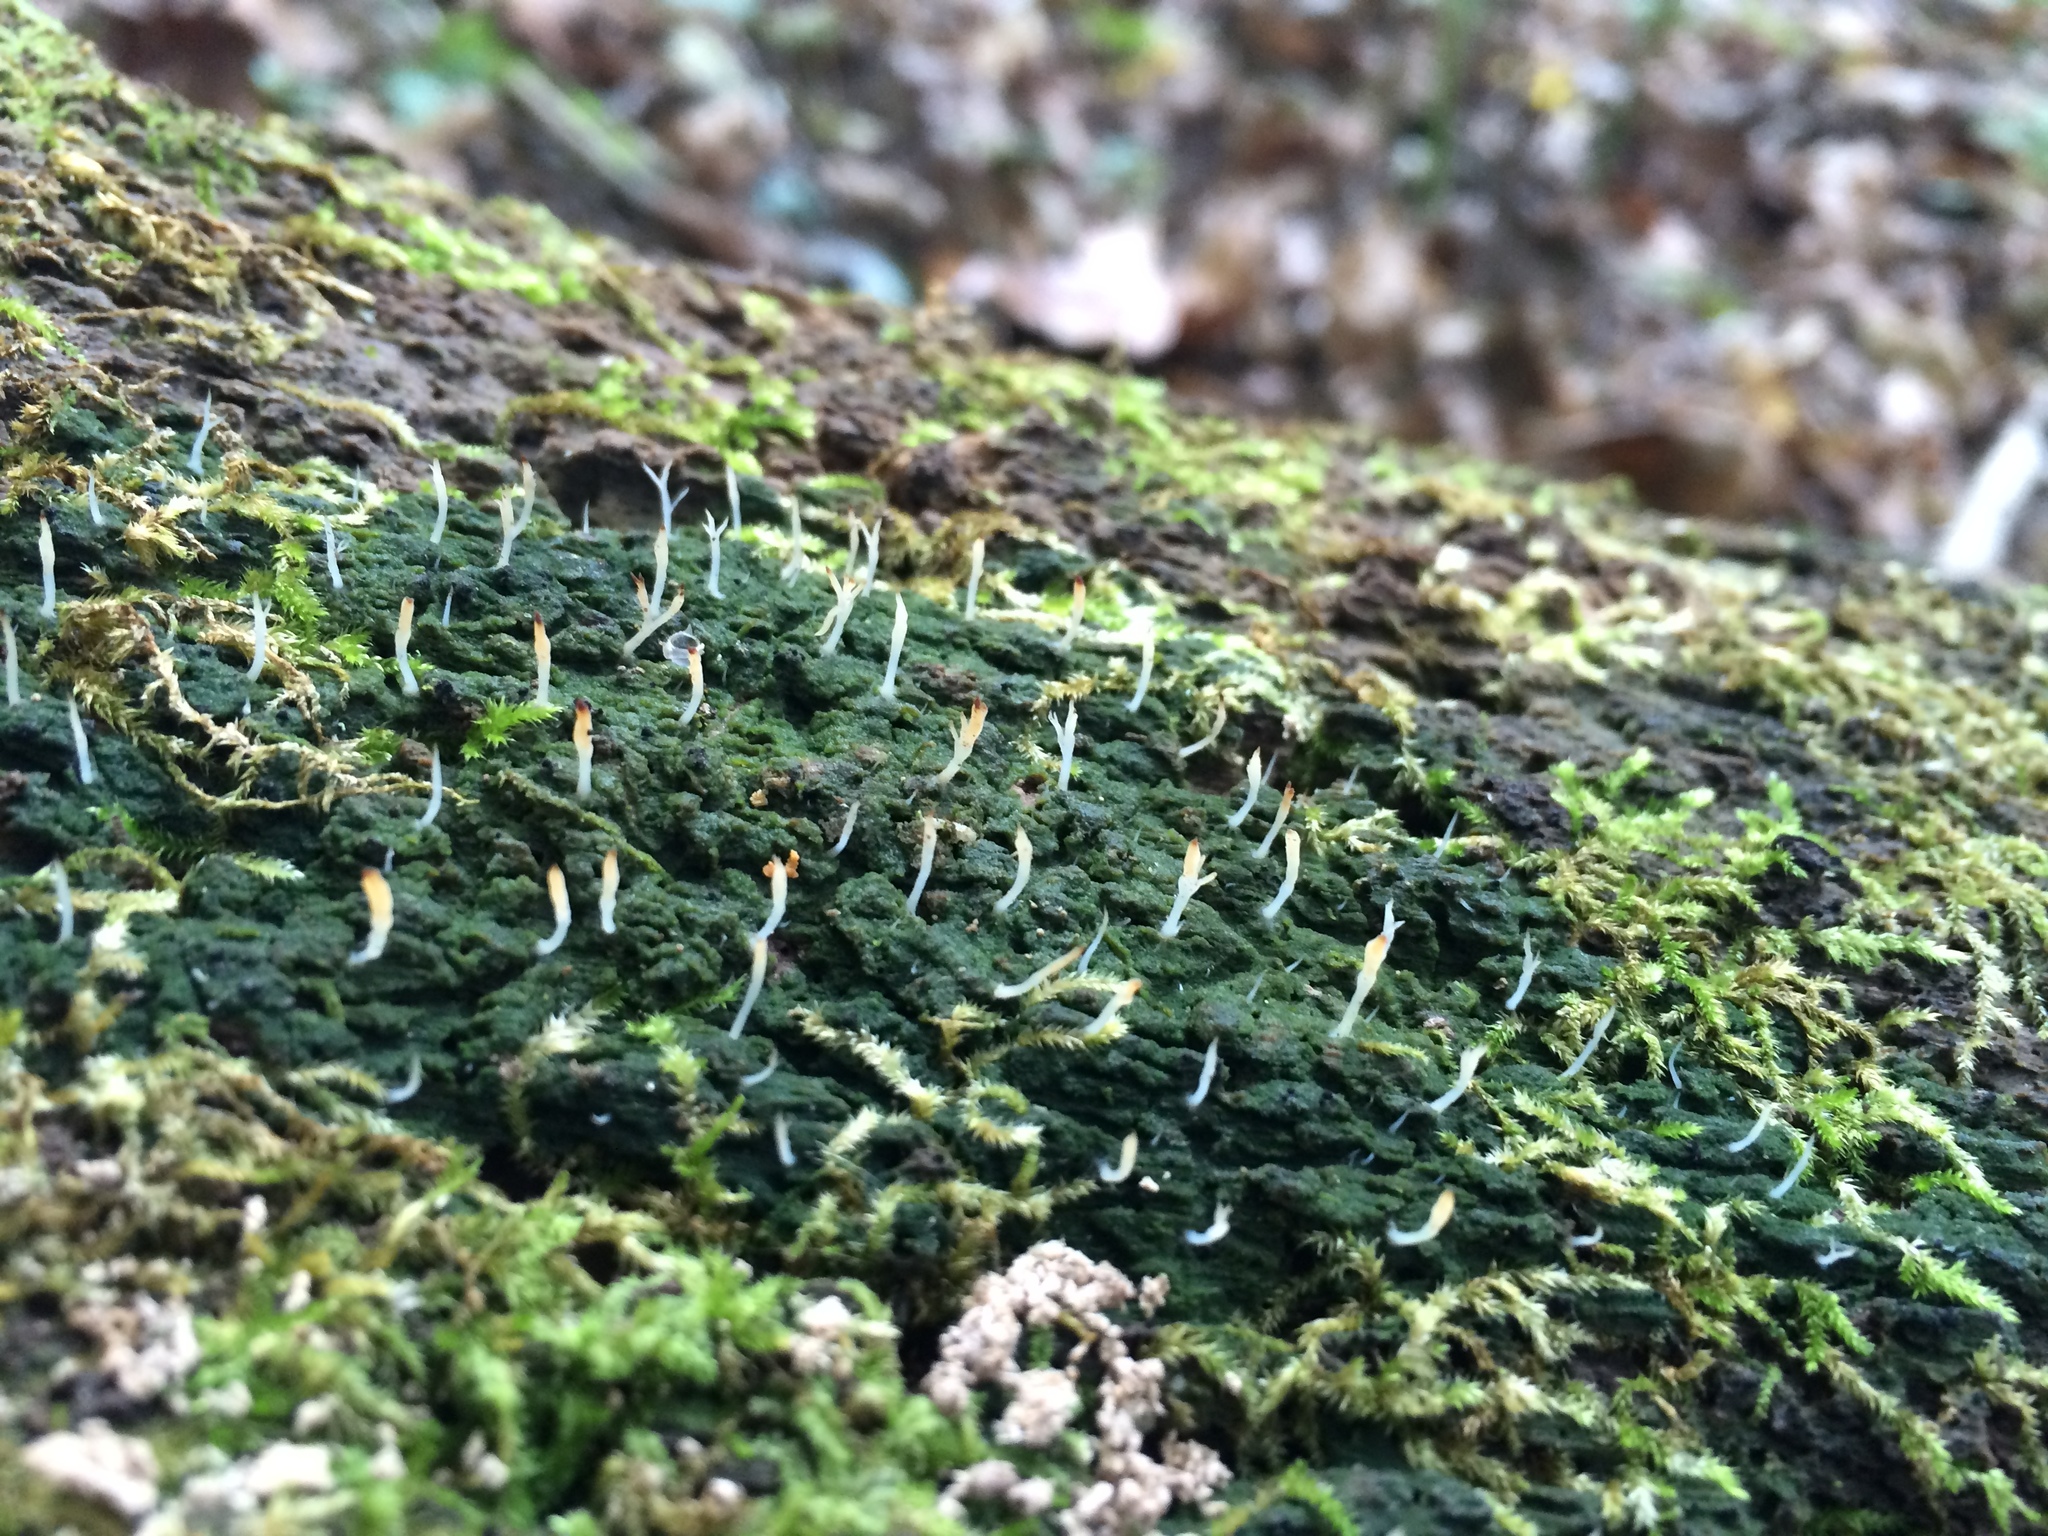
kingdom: Fungi
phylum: Basidiomycota
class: Agaricomycetes
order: Cantharellales
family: Hydnaceae
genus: Multiclavula
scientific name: Multiclavula mucida
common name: White green-algae coral
